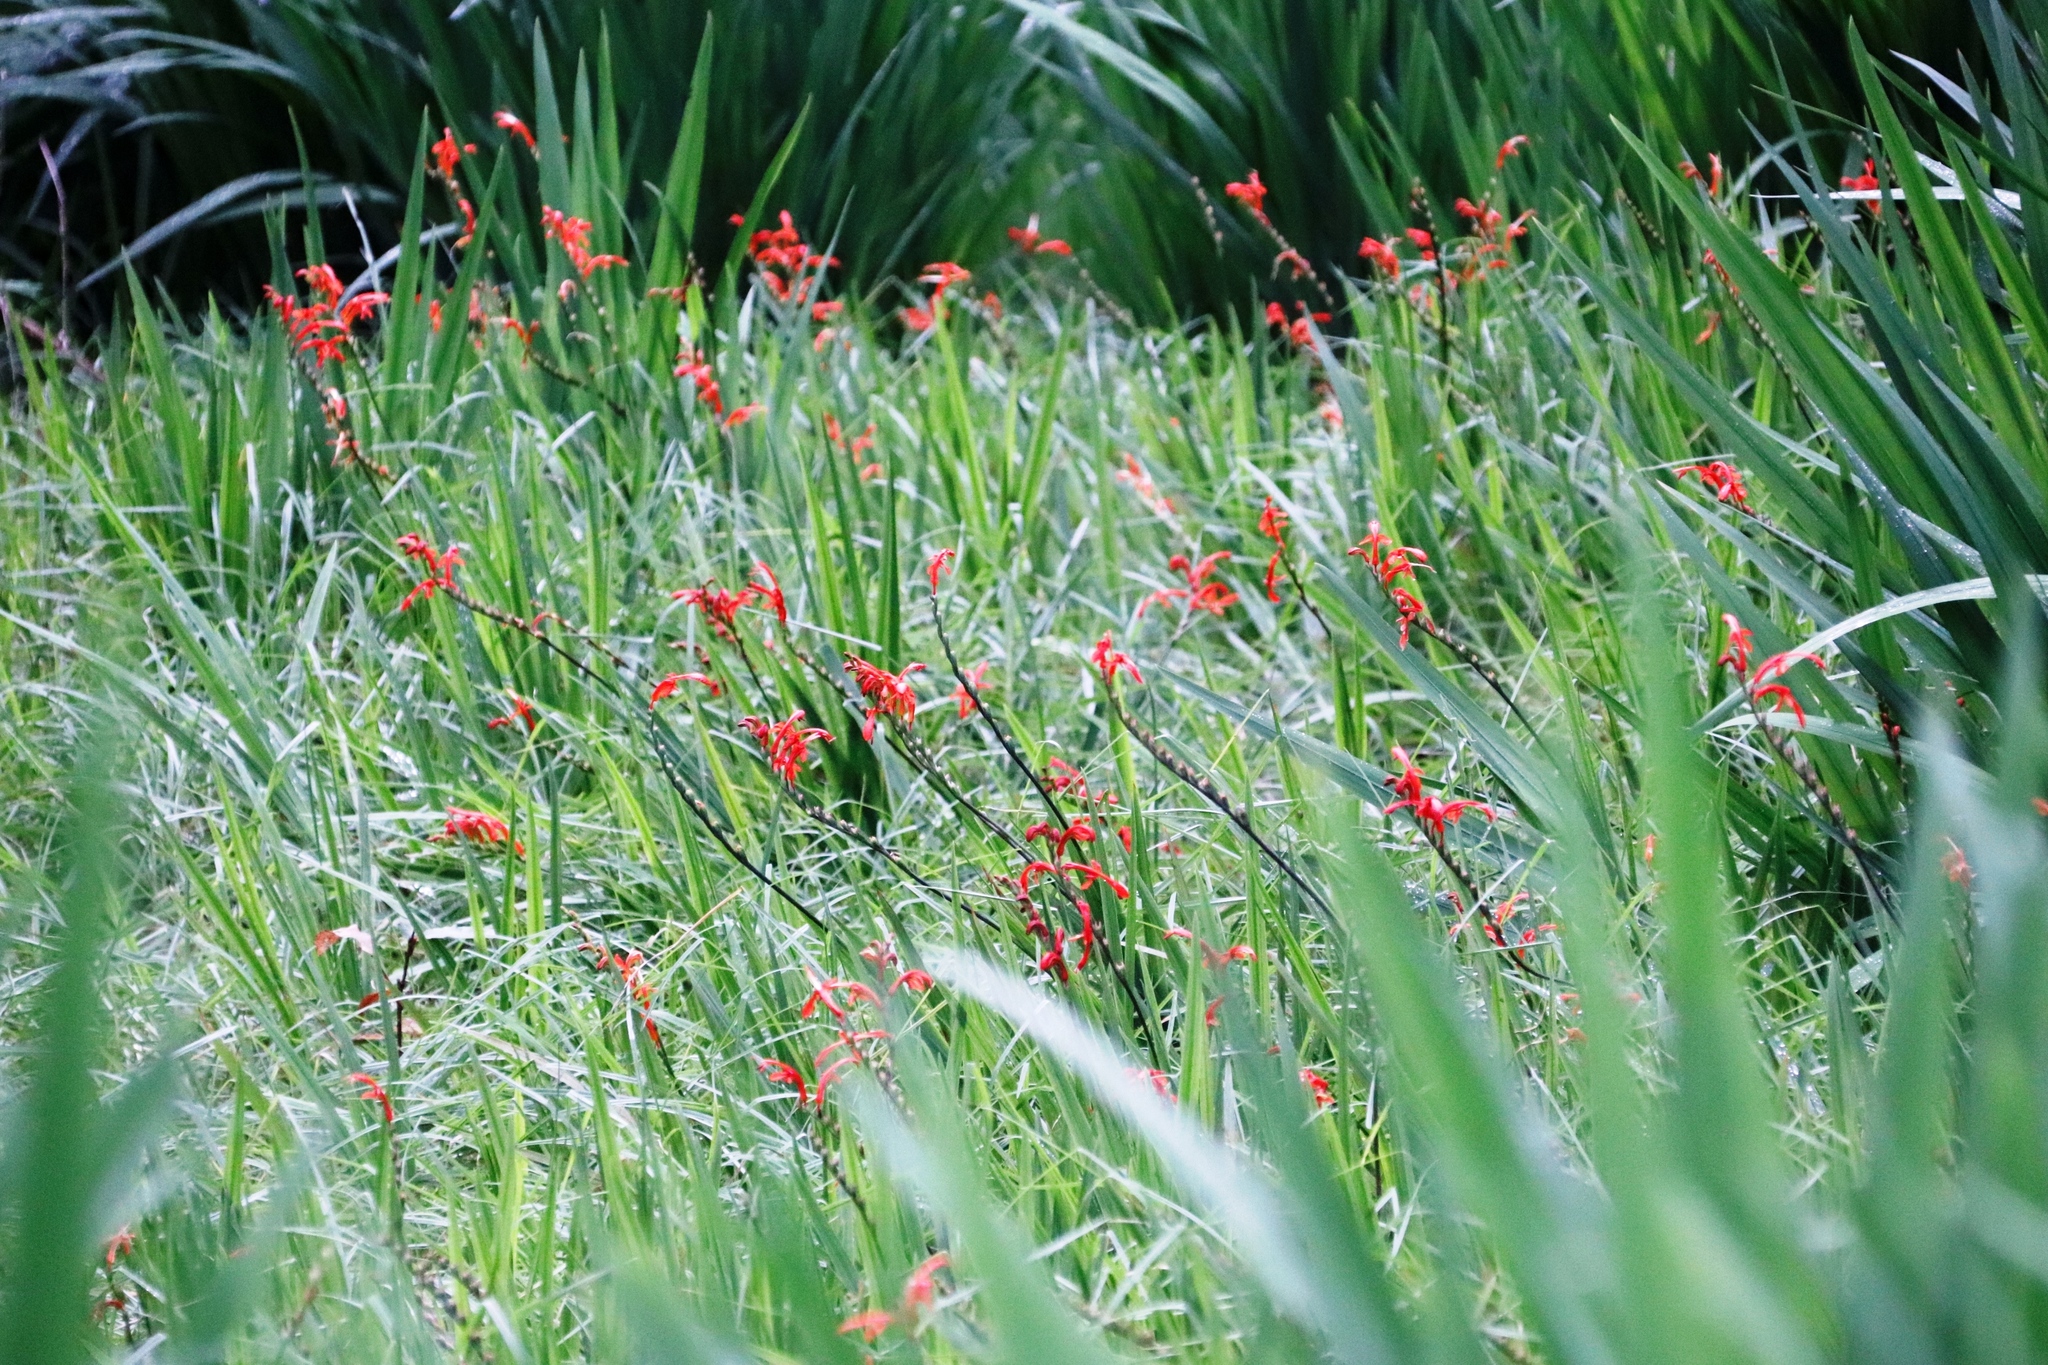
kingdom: Plantae
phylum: Tracheophyta
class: Liliopsida
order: Asparagales
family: Iridaceae
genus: Chasmanthe
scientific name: Chasmanthe aethiopica
